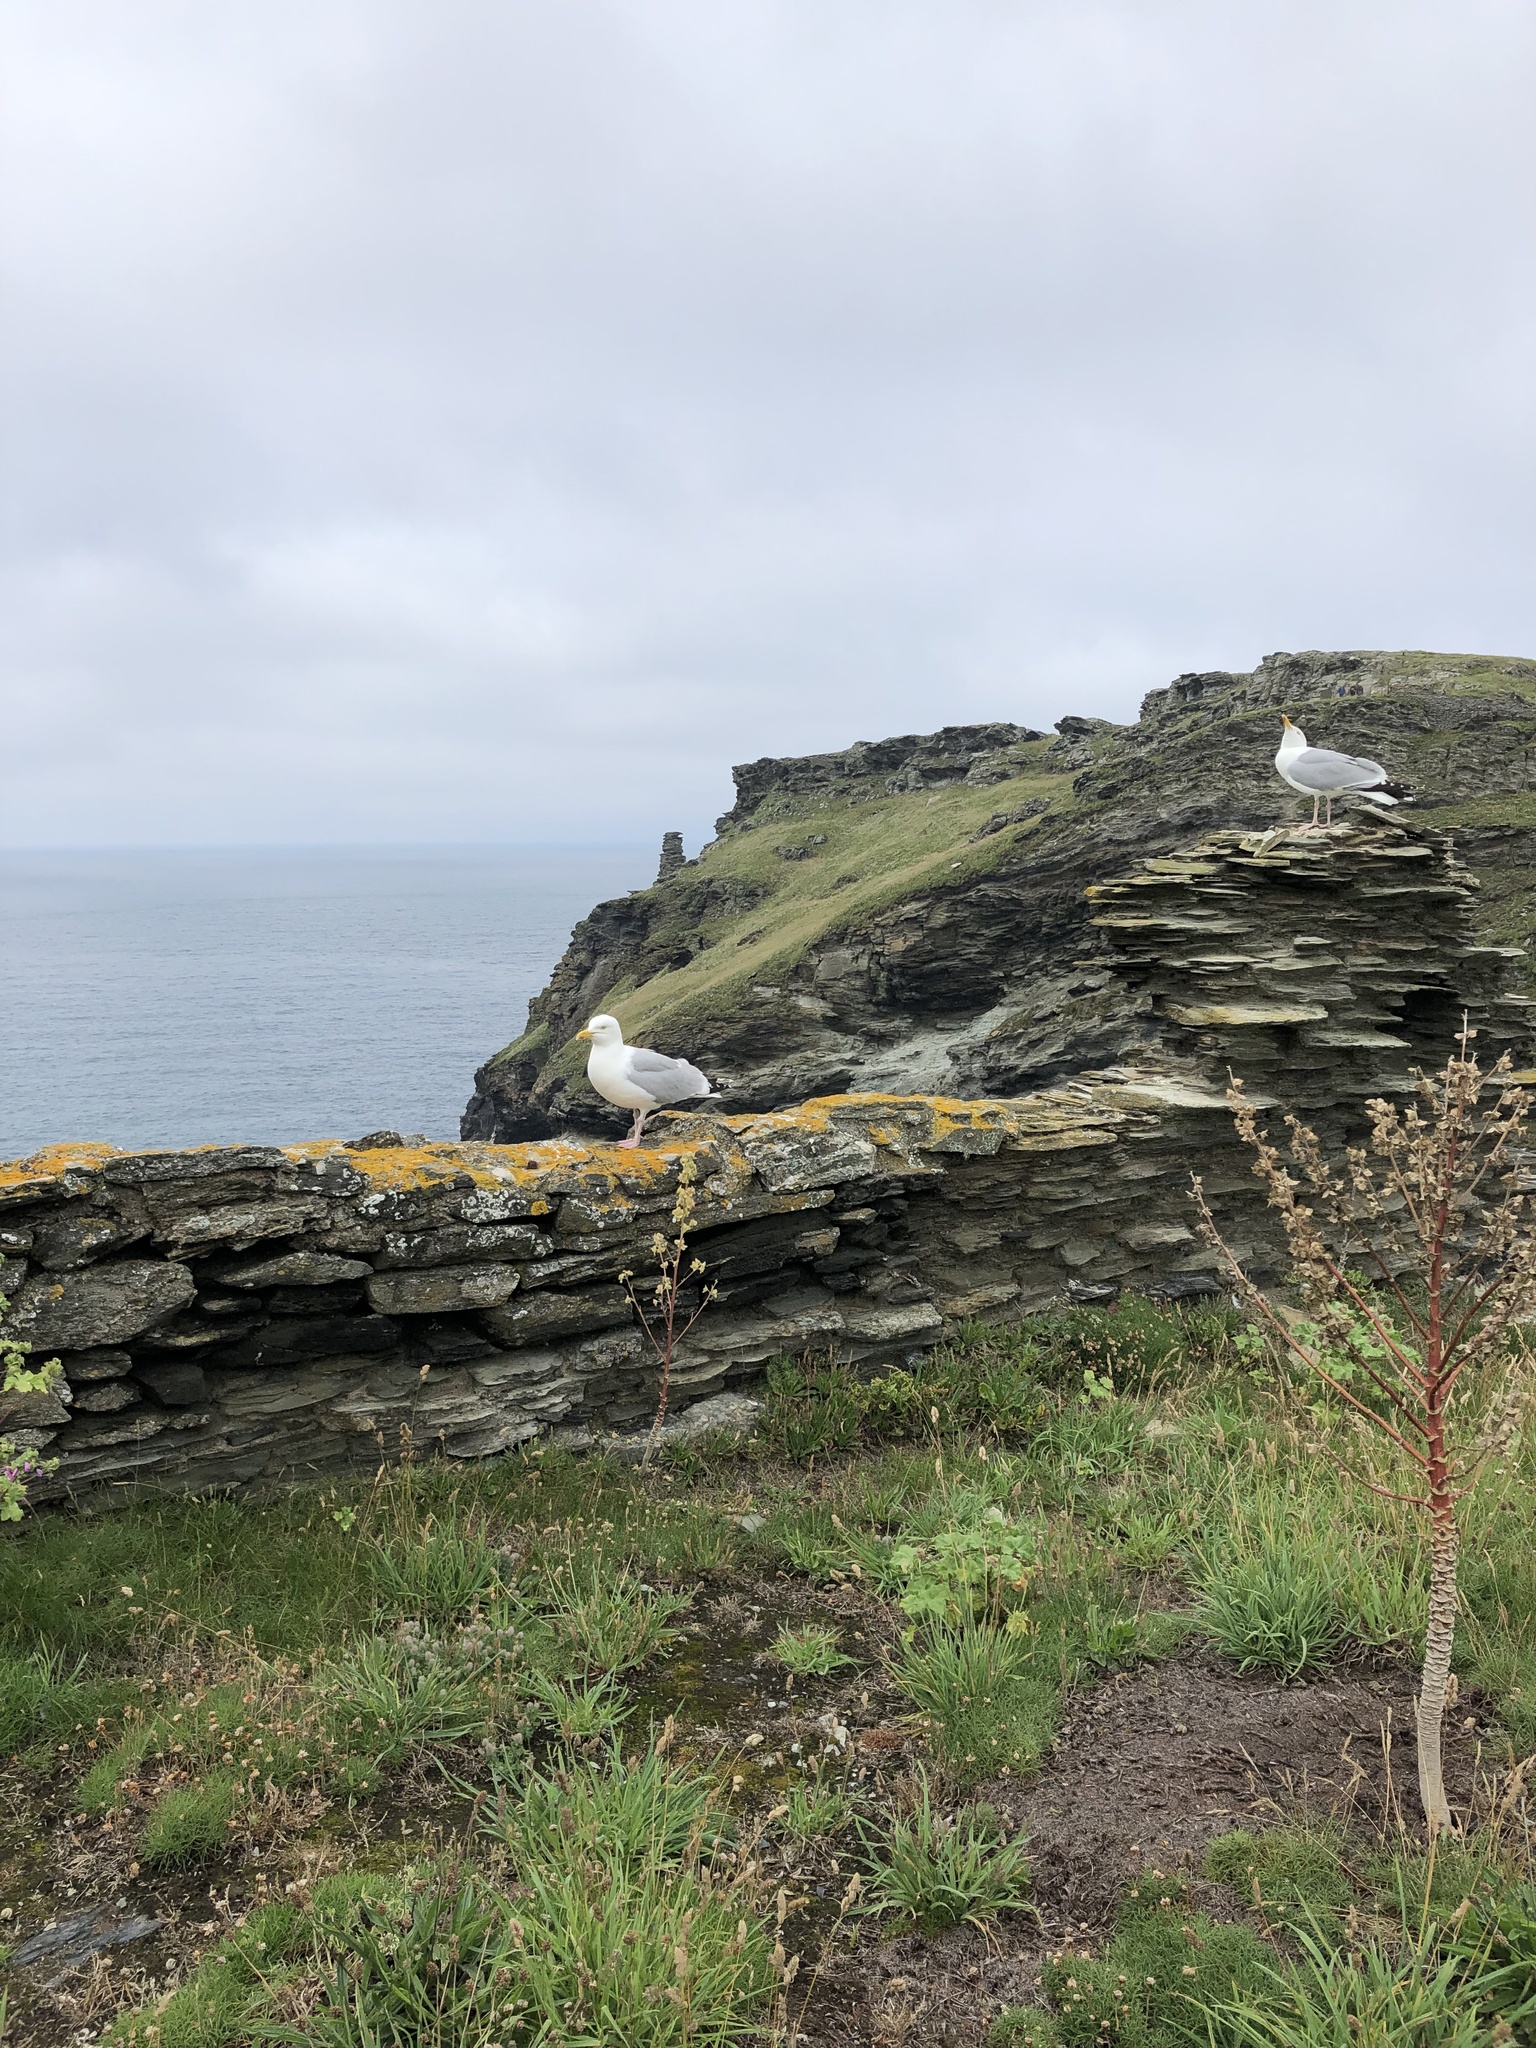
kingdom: Animalia
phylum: Chordata
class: Aves
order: Charadriiformes
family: Laridae
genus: Larus
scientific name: Larus argentatus
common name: Herring gull
